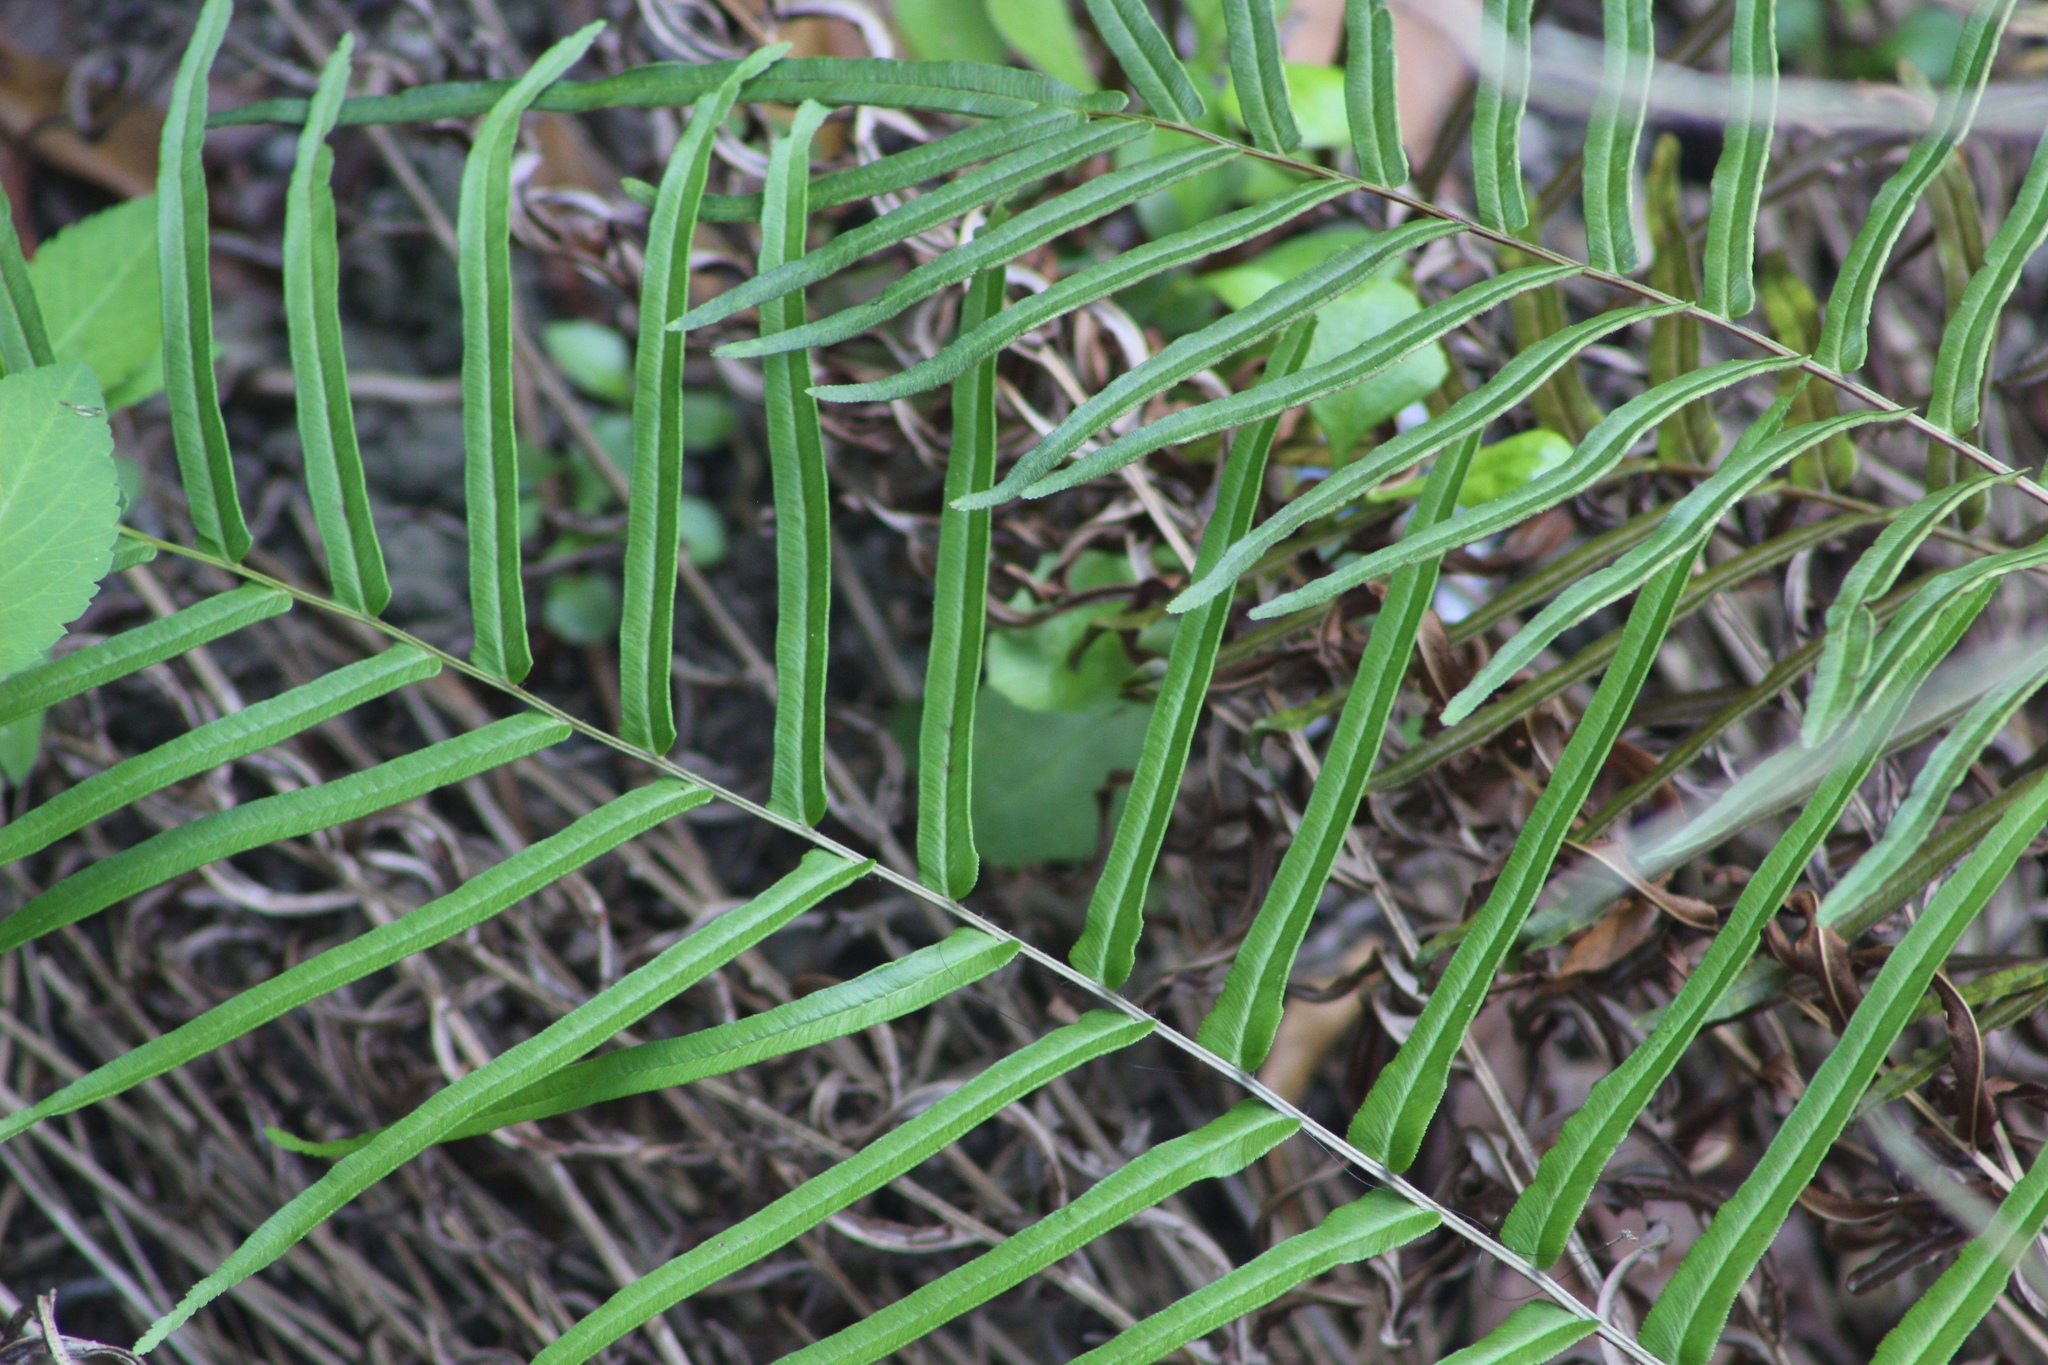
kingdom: Plantae
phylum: Tracheophyta
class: Polypodiopsida
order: Polypodiales
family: Pteridaceae
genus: Pteris
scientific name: Pteris vittata
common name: Ladder brake
